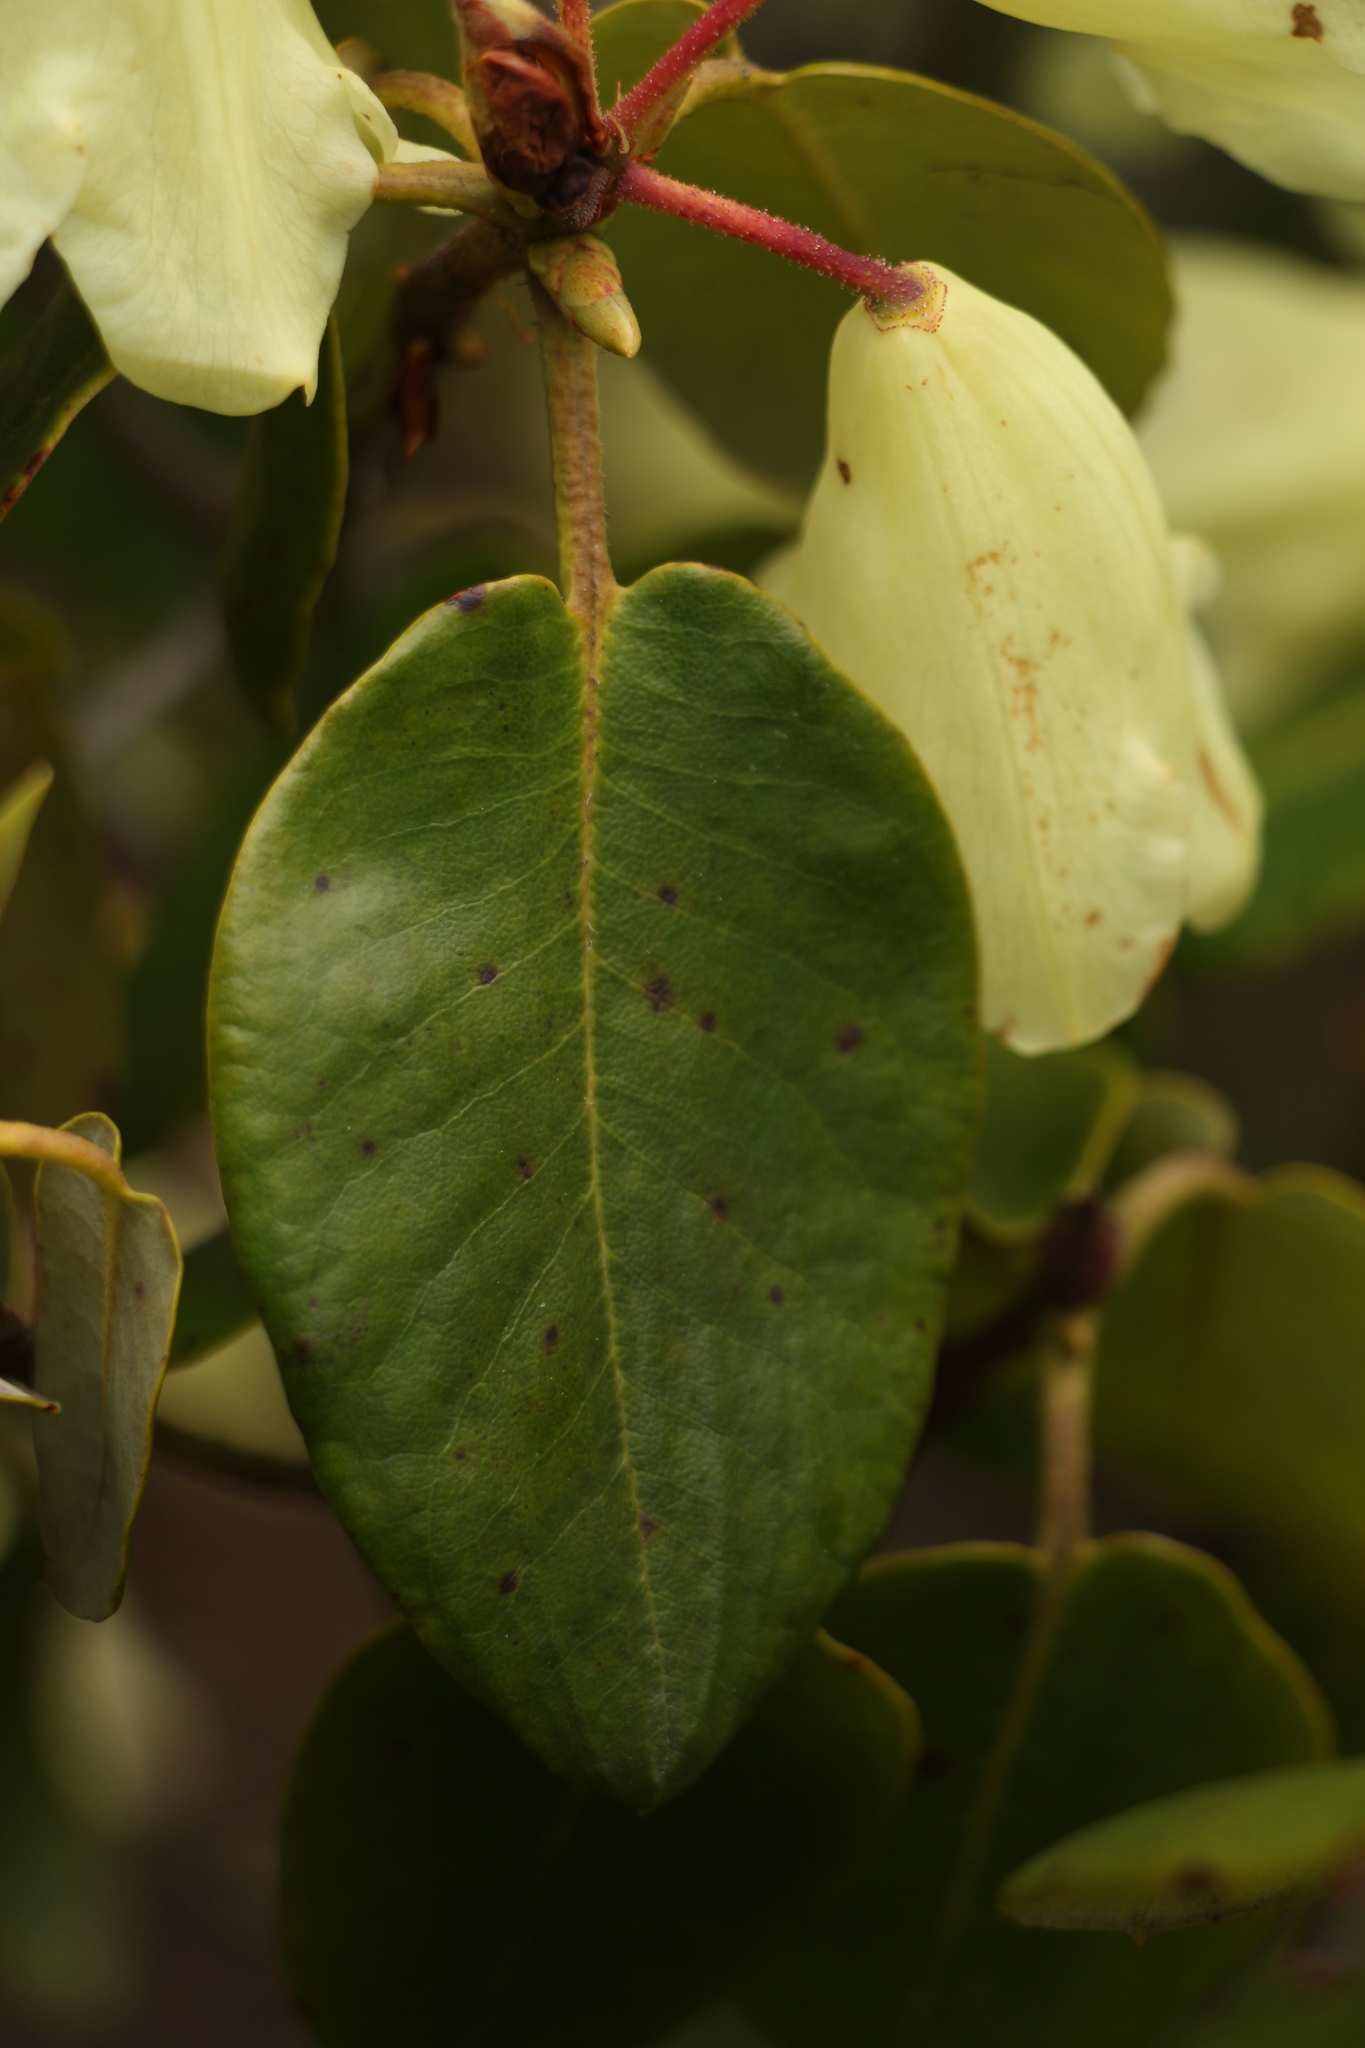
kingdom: Plantae
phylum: Tracheophyta
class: Magnoliopsida
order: Ericales
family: Ericaceae
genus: Rhododendron
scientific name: Rhododendron campylocarpum
